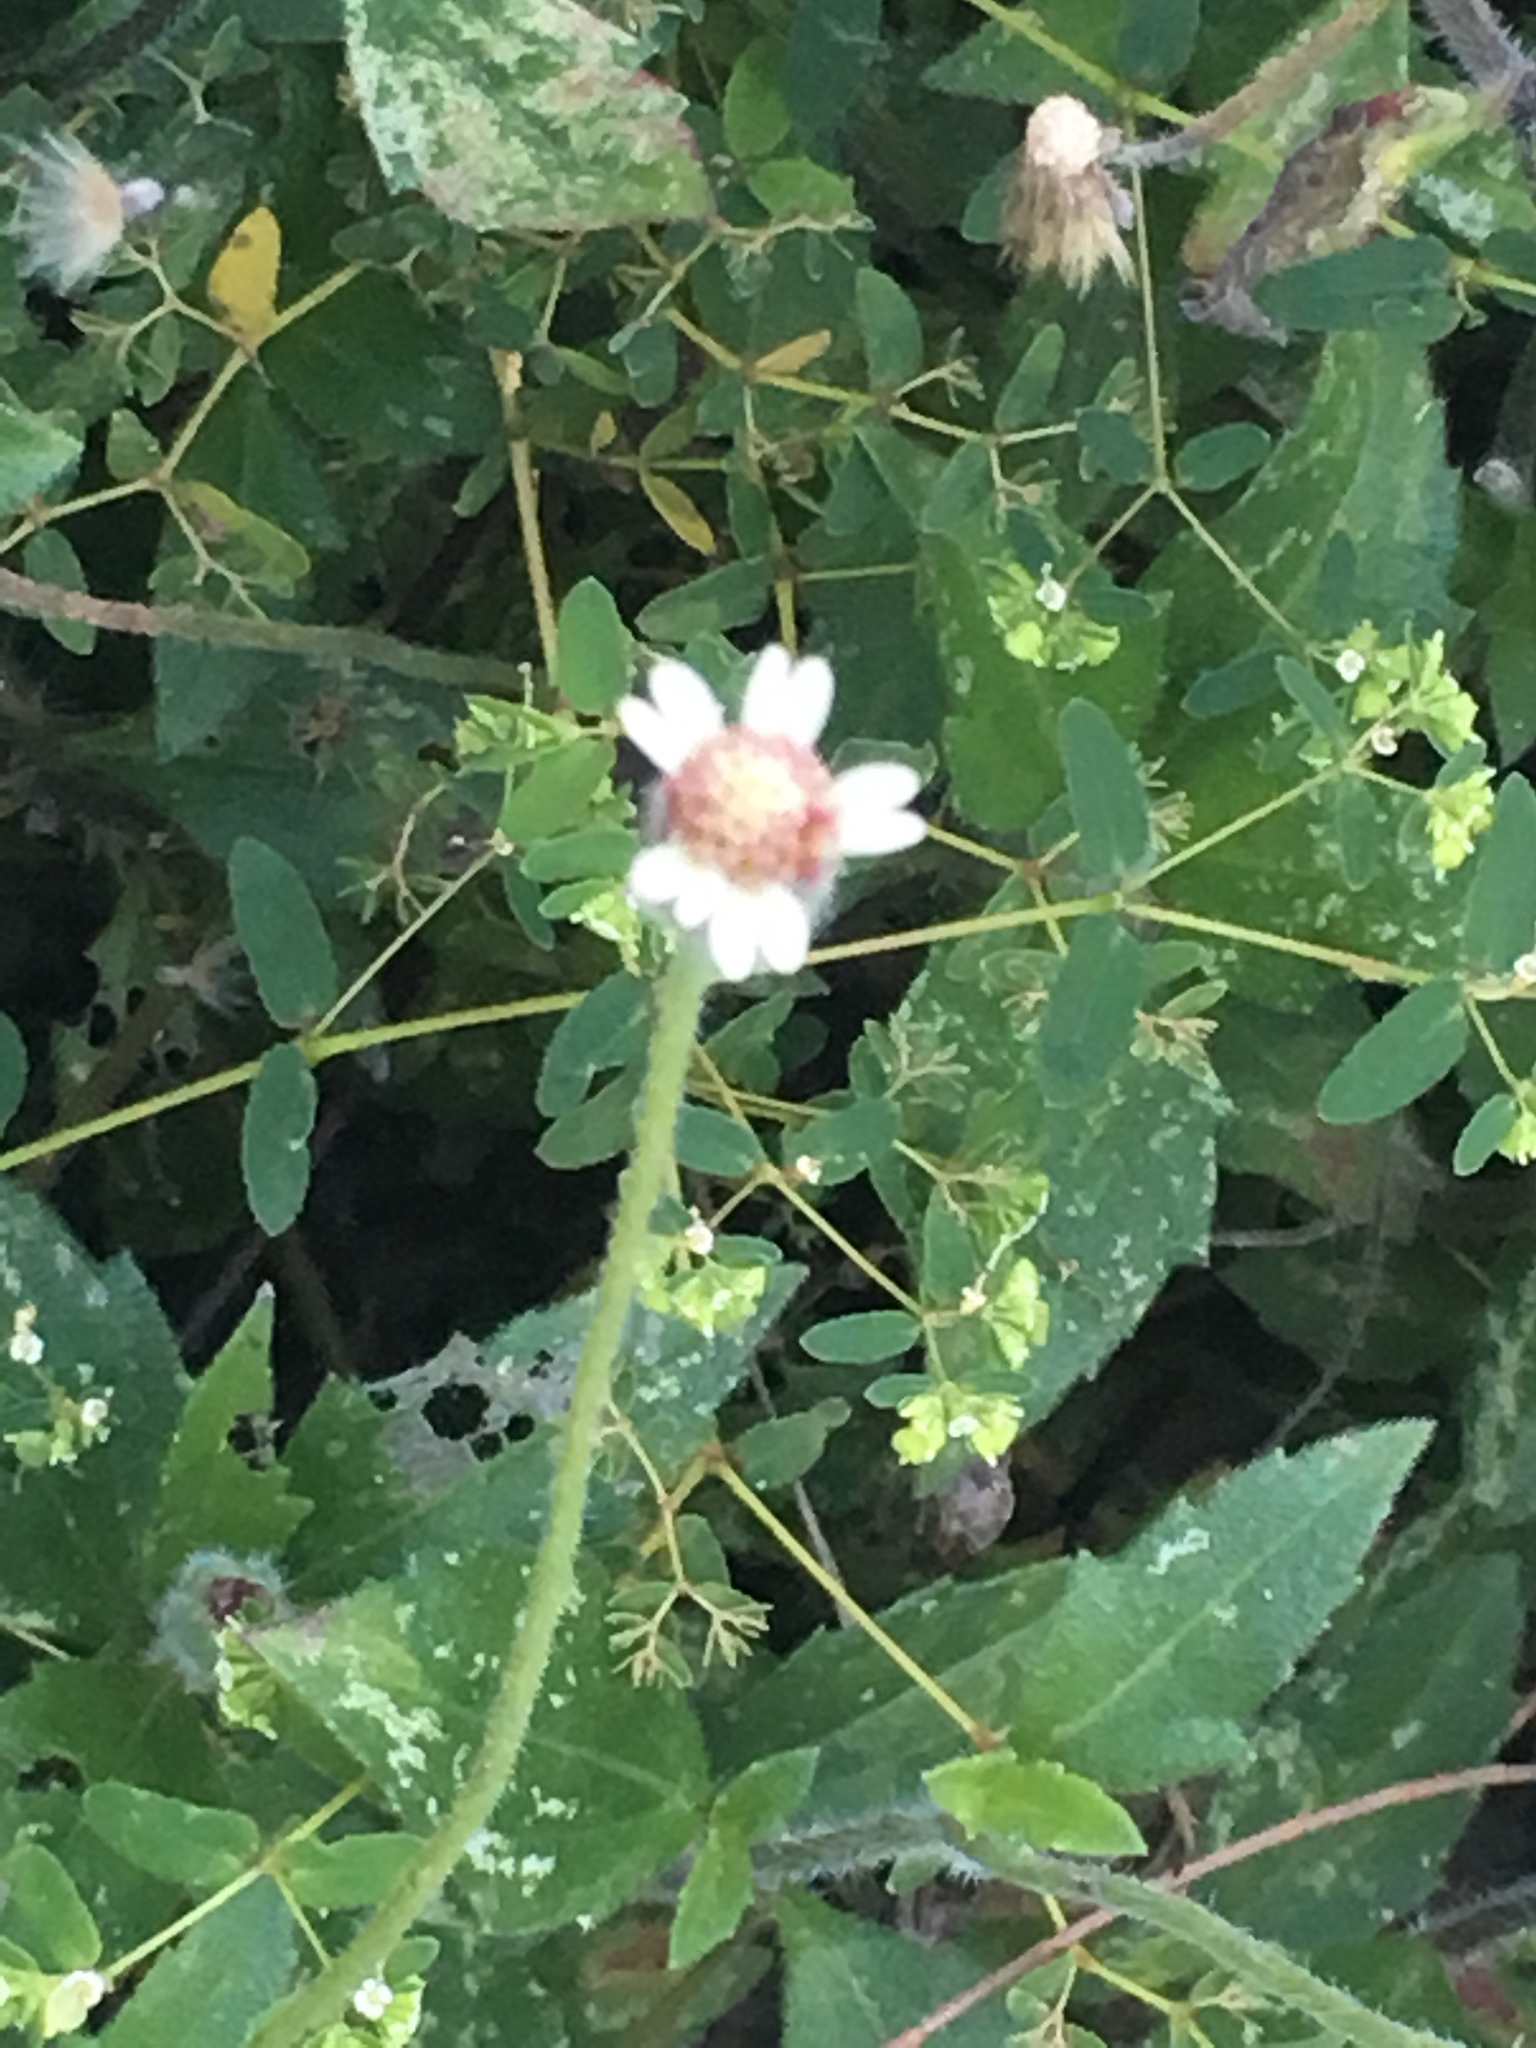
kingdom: Plantae
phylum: Tracheophyta
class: Magnoliopsida
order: Asterales
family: Asteraceae
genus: Tridax
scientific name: Tridax procumbens
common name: Coatbuttons
